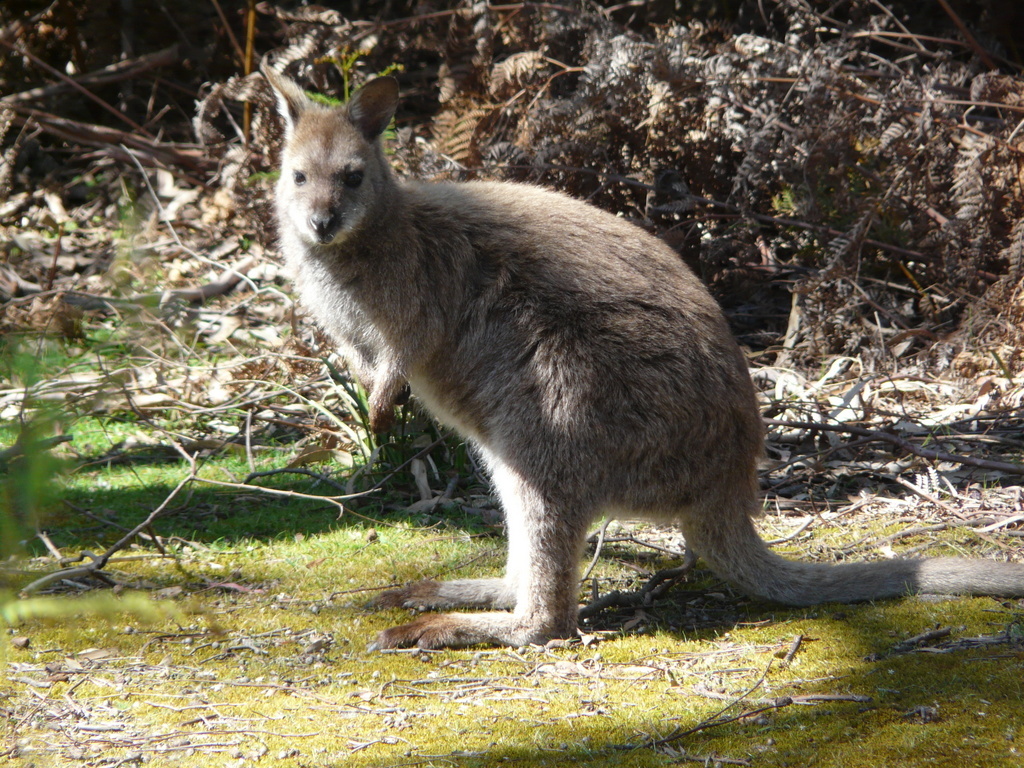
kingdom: Animalia
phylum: Chordata
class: Mammalia
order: Diprotodontia
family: Macropodidae
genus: Notamacropus
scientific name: Notamacropus rufogriseus
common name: Red-necked wallaby
